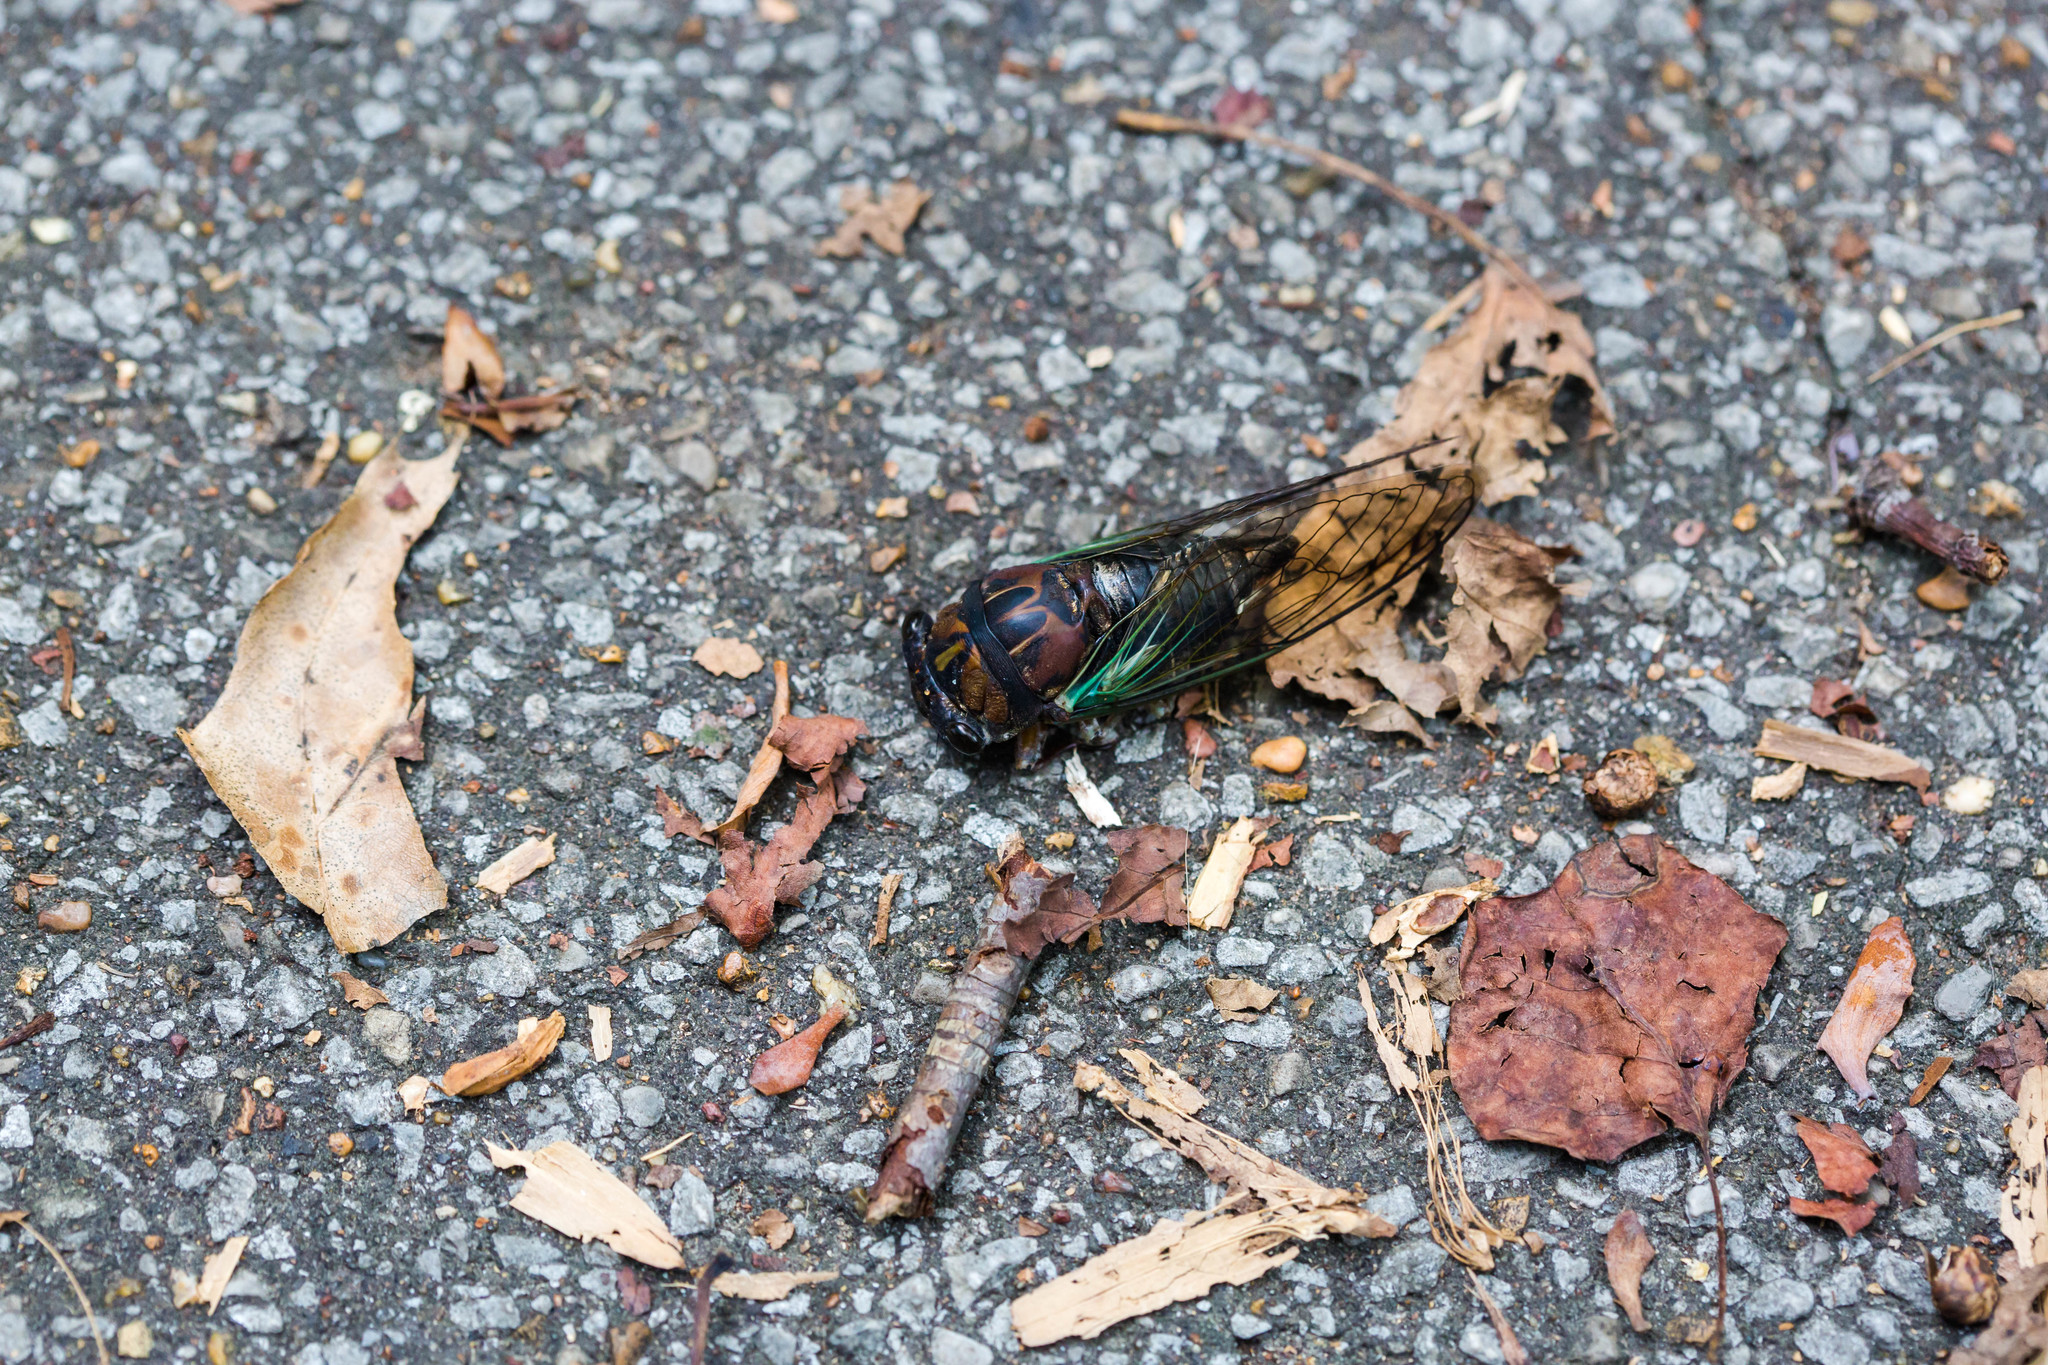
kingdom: Animalia
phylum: Arthropoda
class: Insecta
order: Hemiptera
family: Cicadidae
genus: Neotibicen
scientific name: Neotibicen lyricen
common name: Lyric cicada
